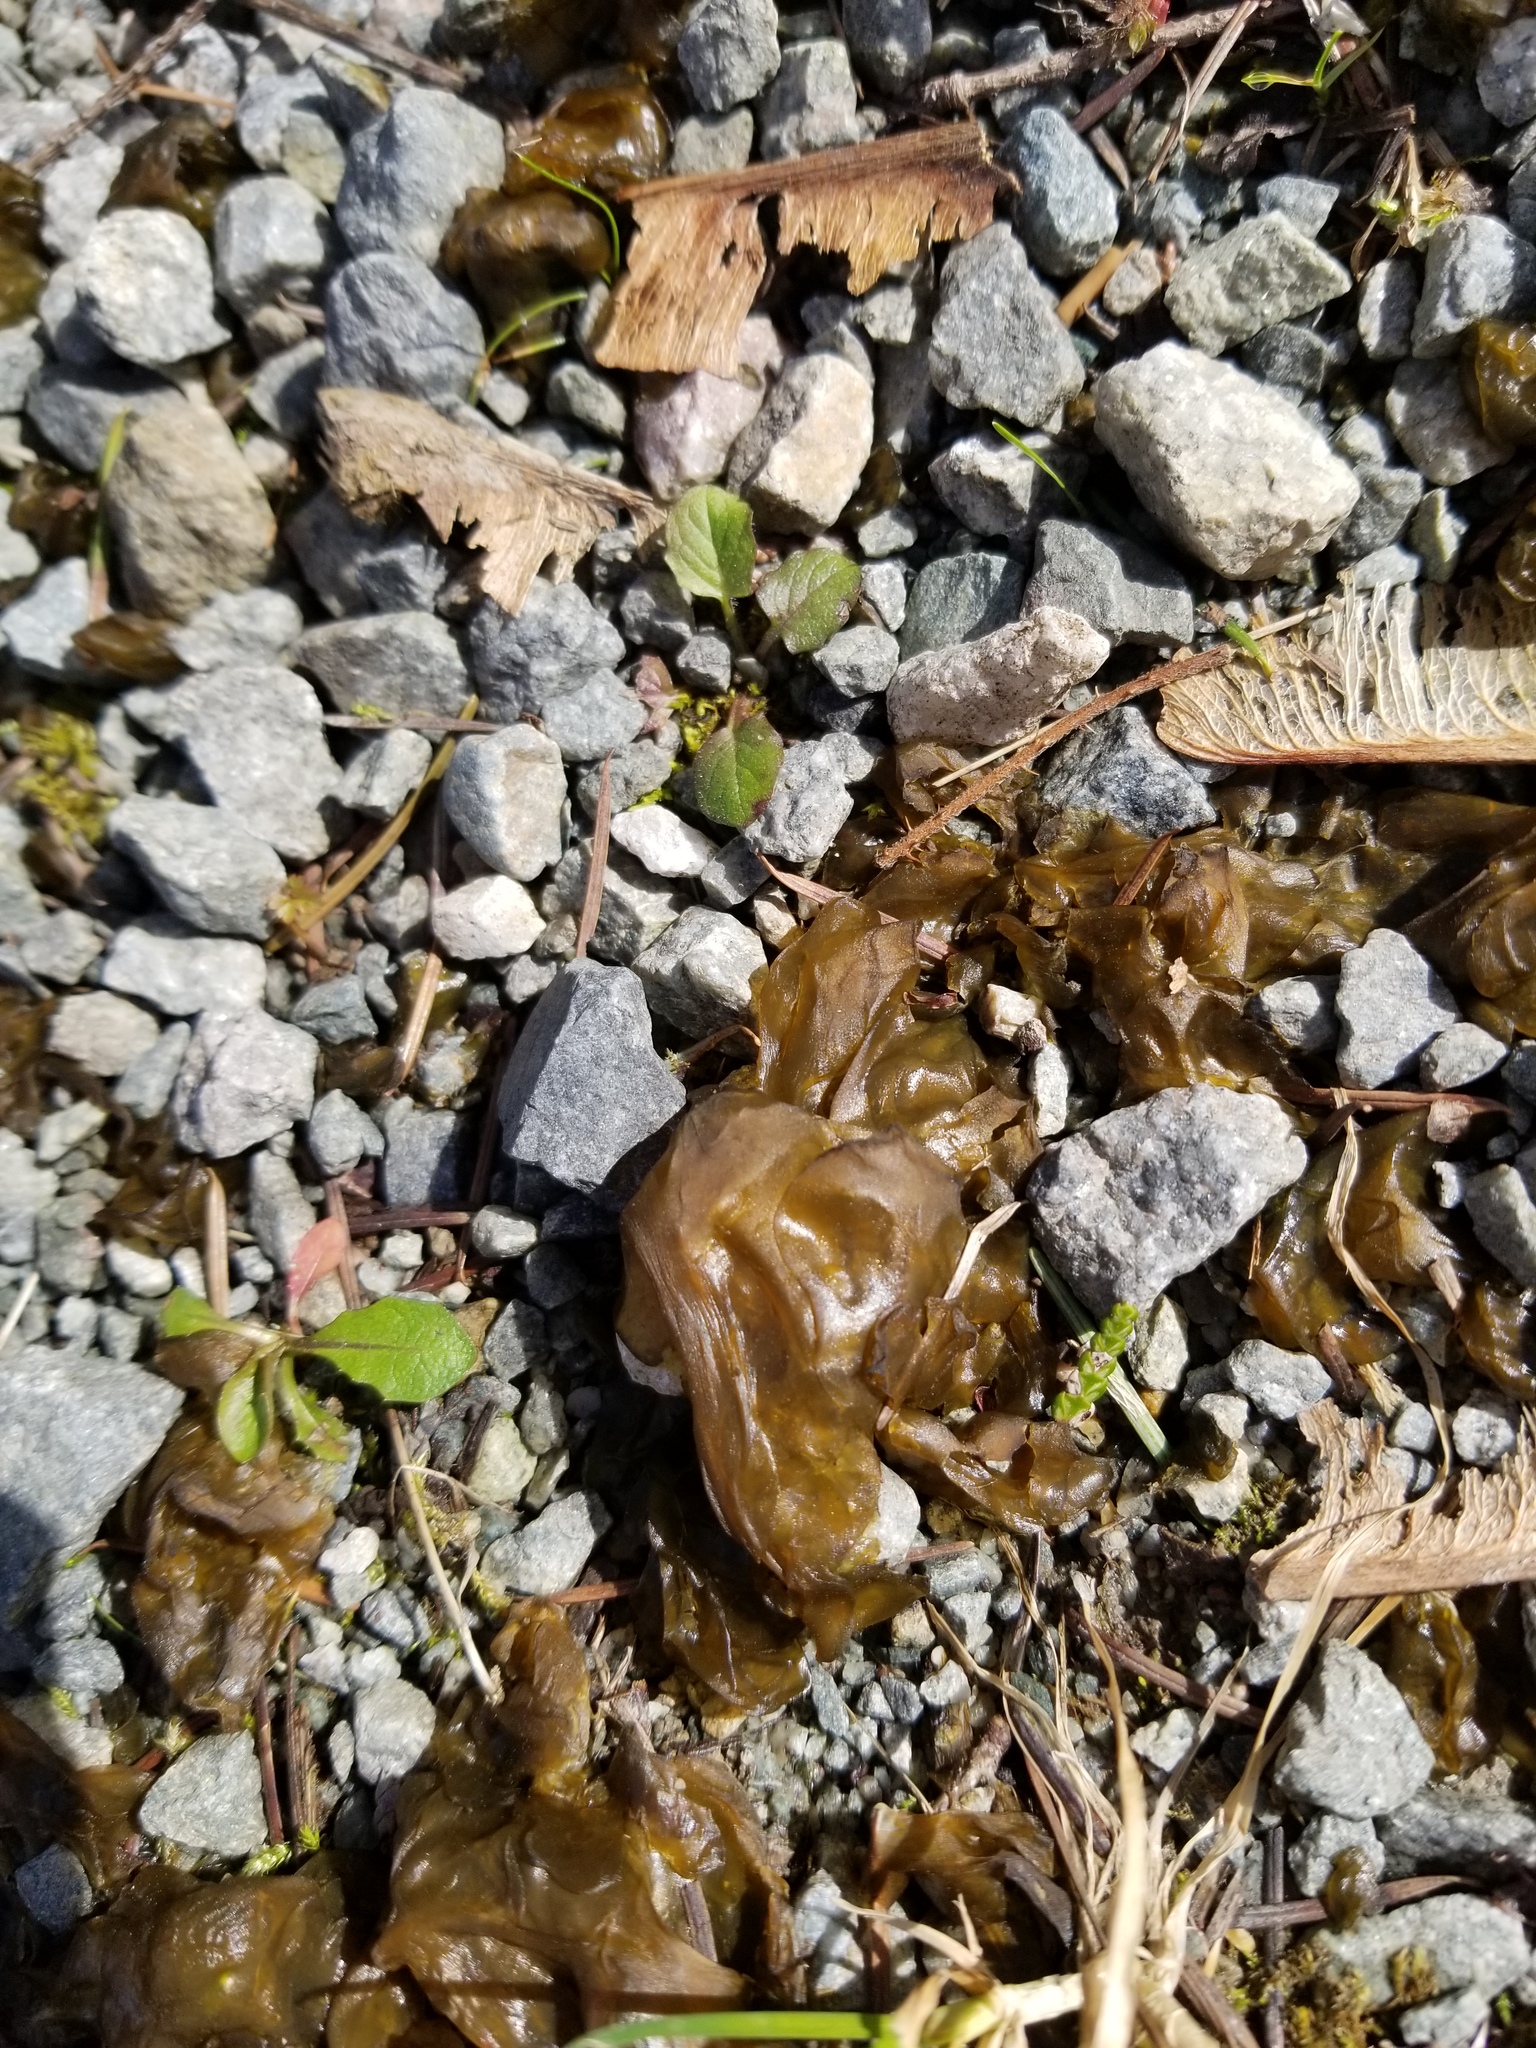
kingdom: Bacteria
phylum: Cyanobacteria
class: Cyanobacteriia
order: Cyanobacteriales
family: Nostocaceae
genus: Nostoc
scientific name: Nostoc commune
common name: Star jelly
